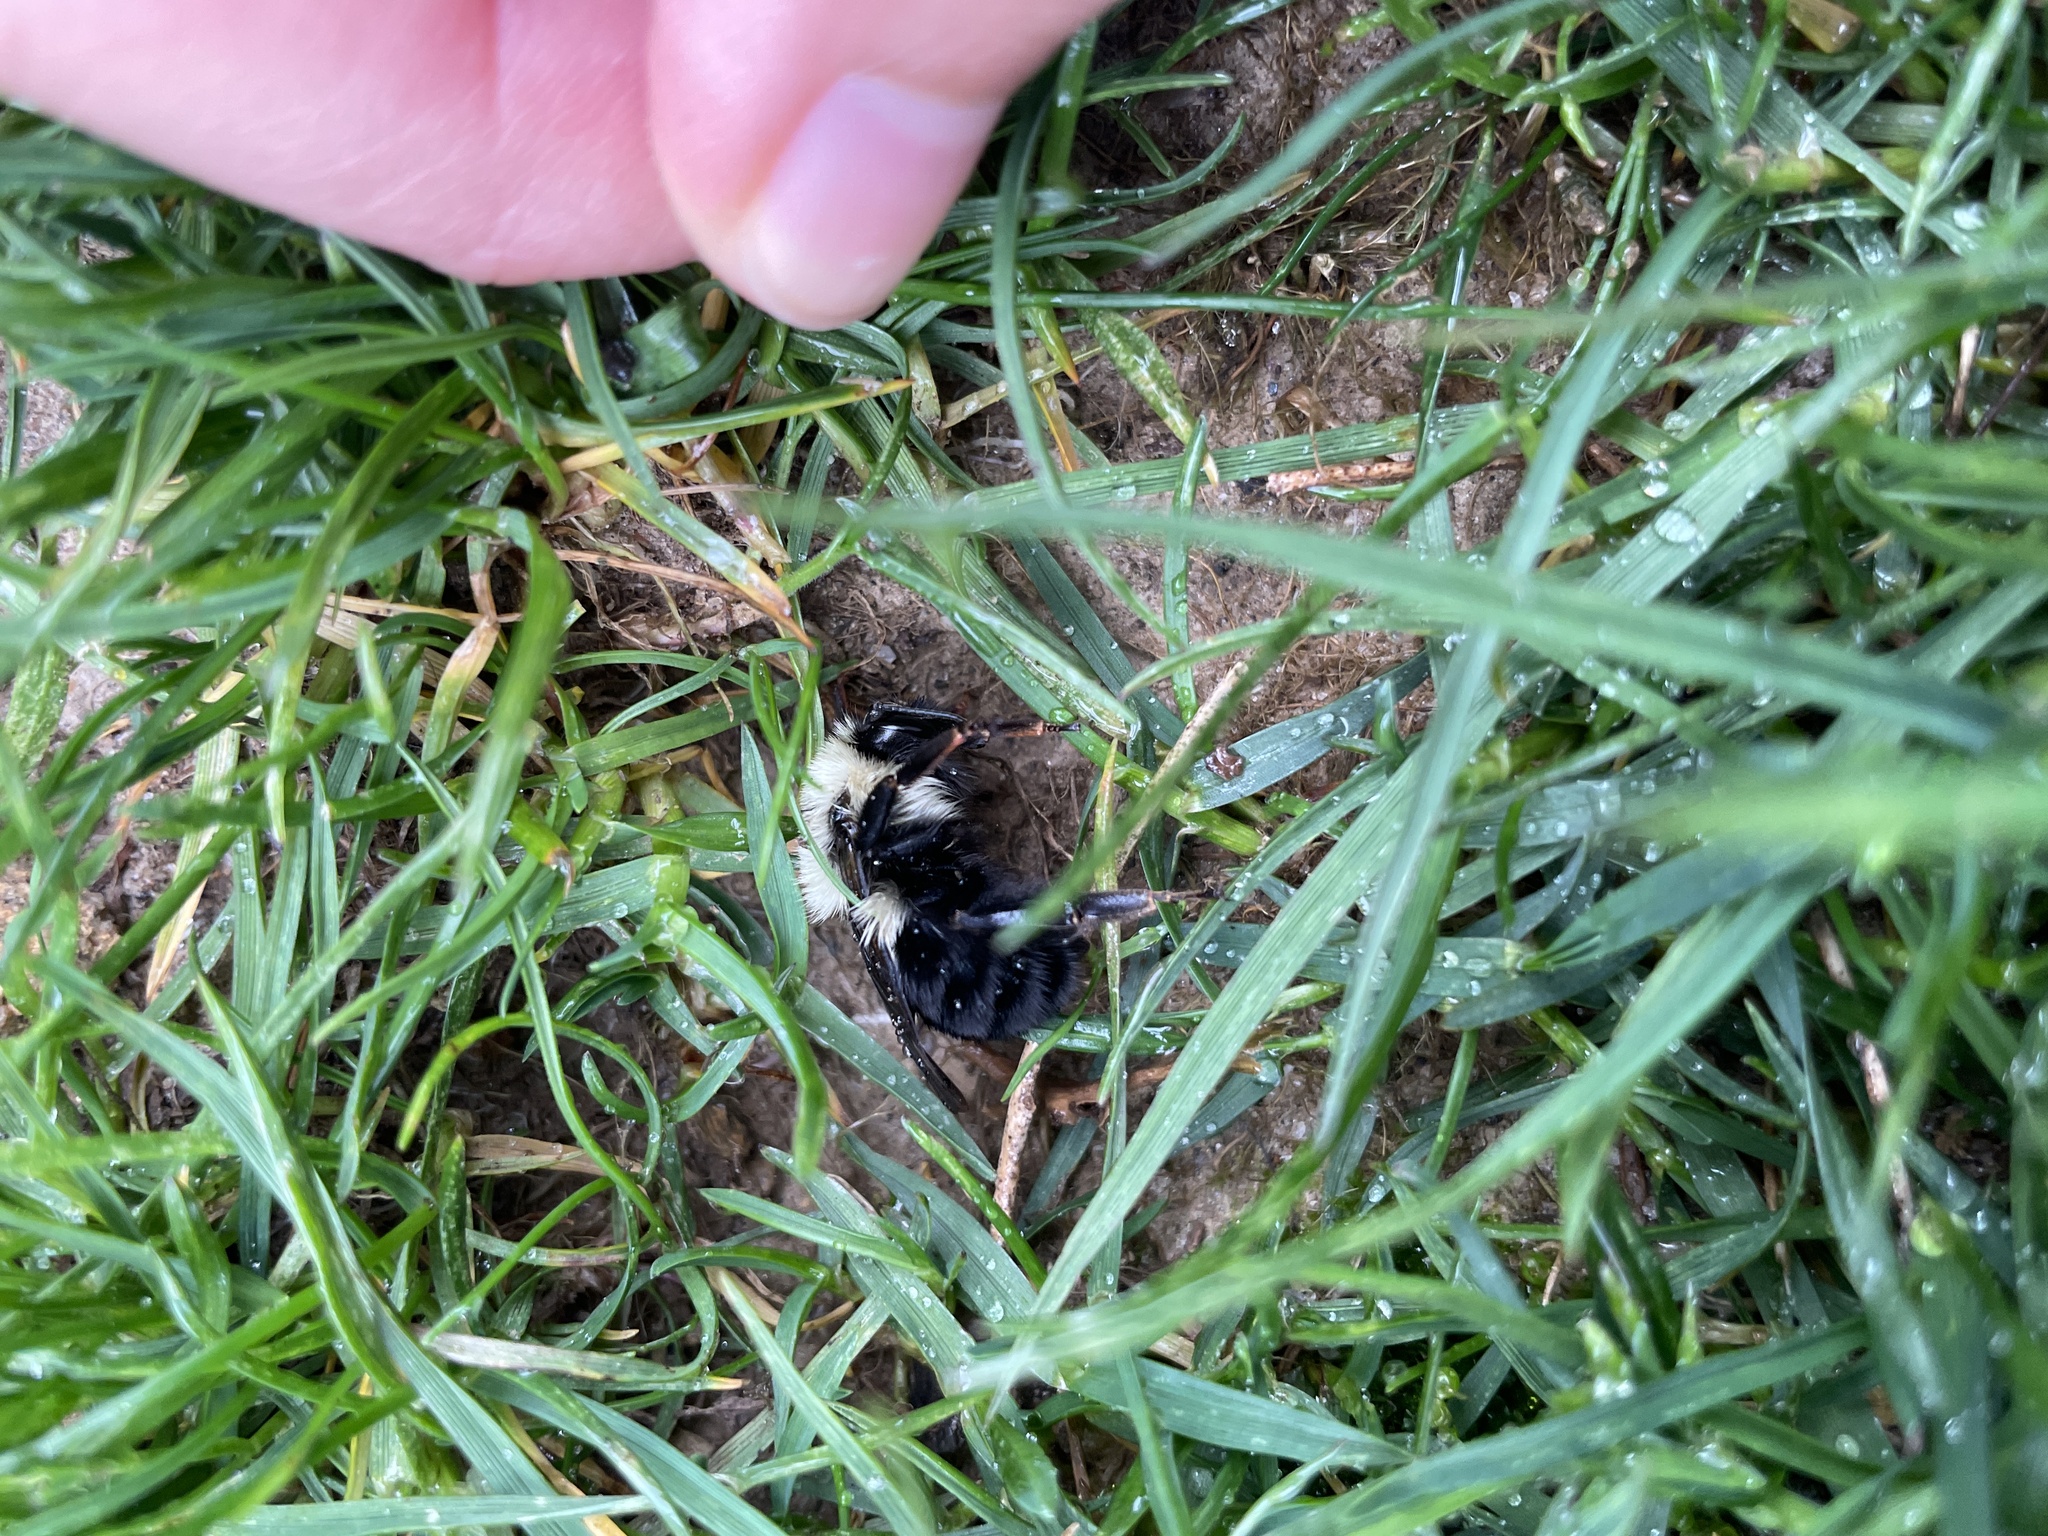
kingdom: Animalia
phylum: Arthropoda
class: Insecta
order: Hymenoptera
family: Apidae
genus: Bombus
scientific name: Bombus impatiens
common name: Common eastern bumble bee
